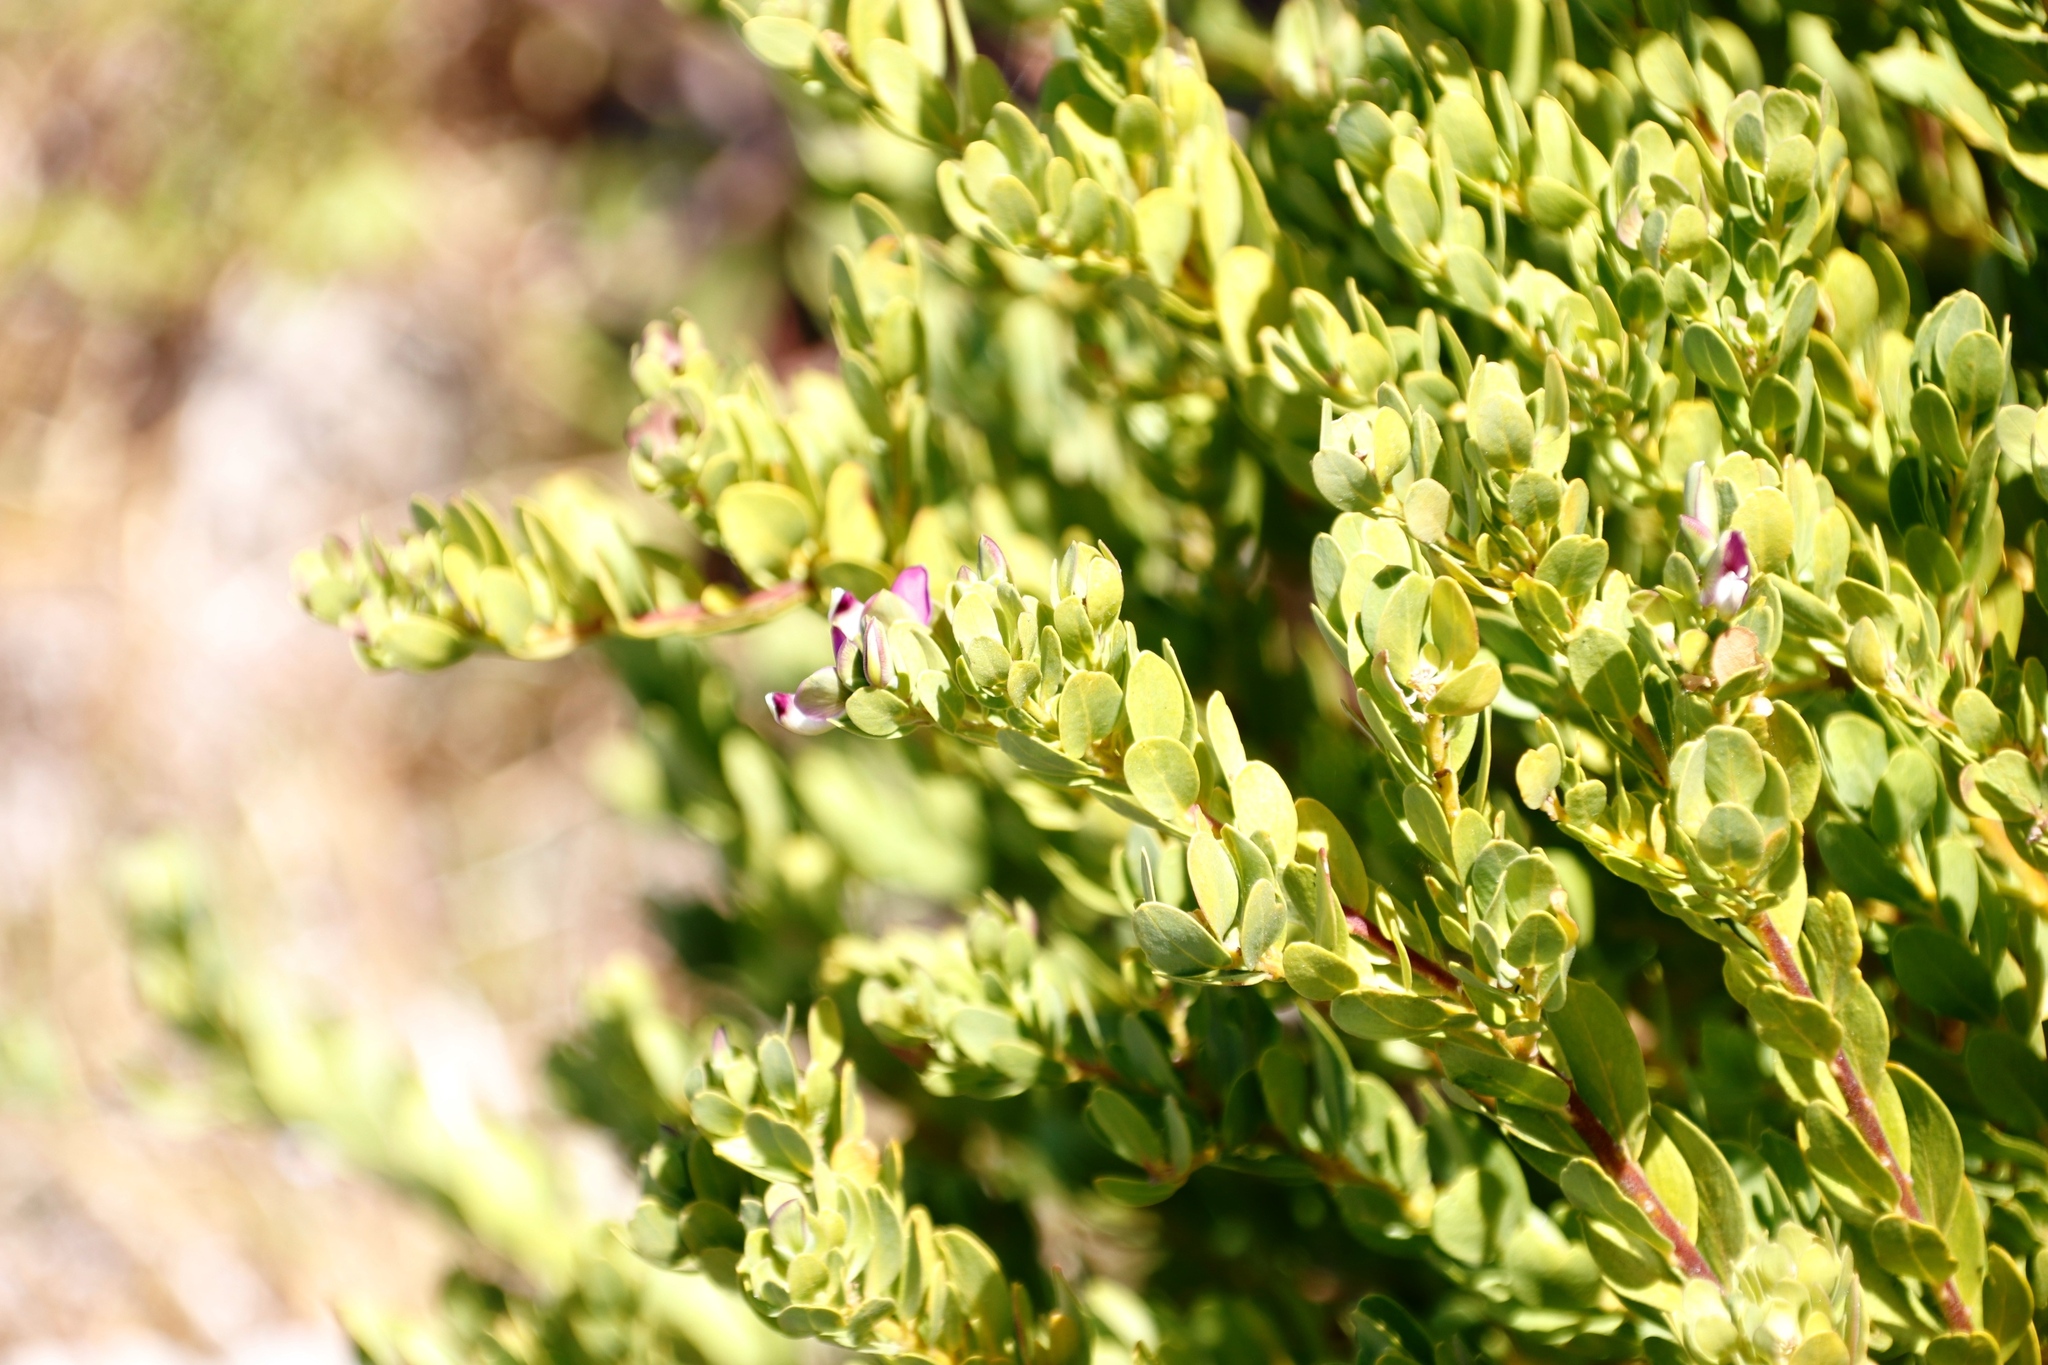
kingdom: Plantae
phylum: Tracheophyta
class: Magnoliopsida
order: Fabales
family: Polygalaceae
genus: Polygala
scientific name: Polygala myrtifolia
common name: Myrtle-leaf milkwort
